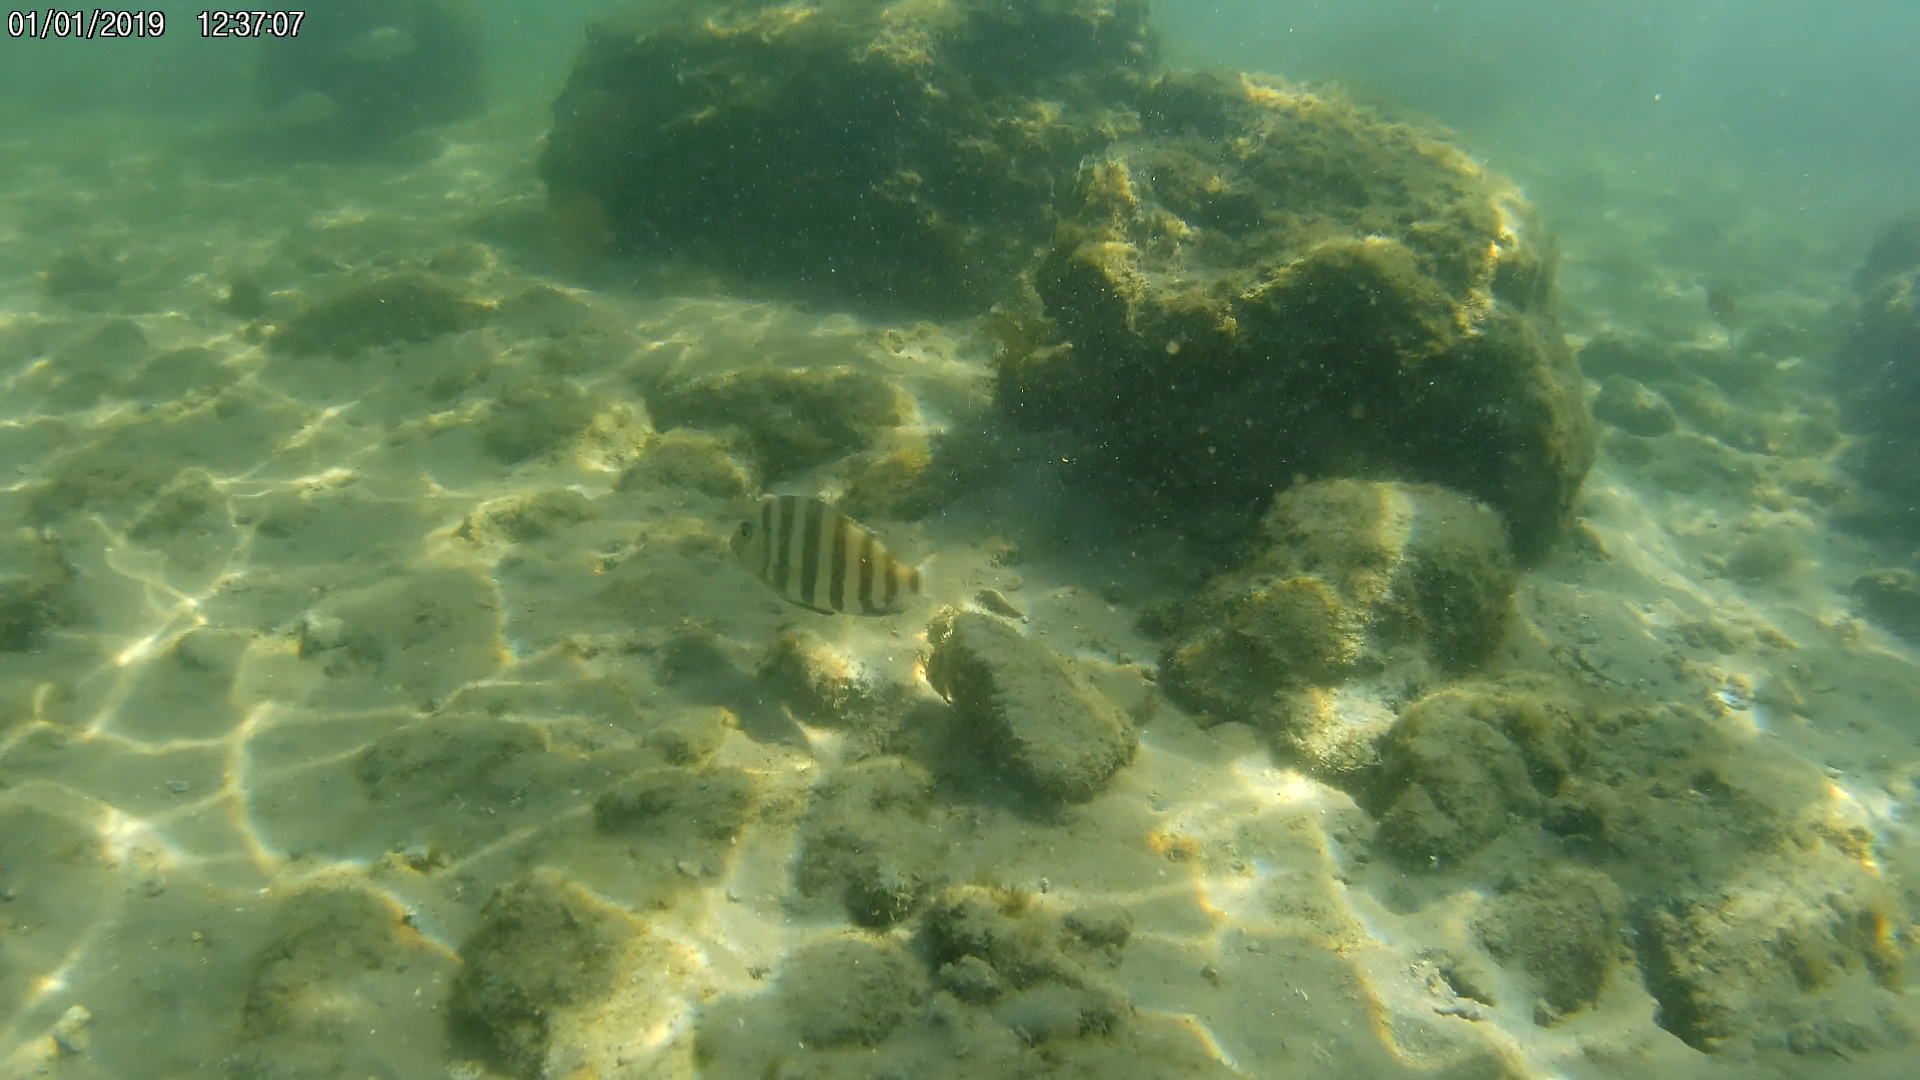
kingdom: Animalia
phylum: Chordata
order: Perciformes
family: Sparidae
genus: Archosargus
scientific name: Archosargus probatocephalus
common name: Sheepshead
